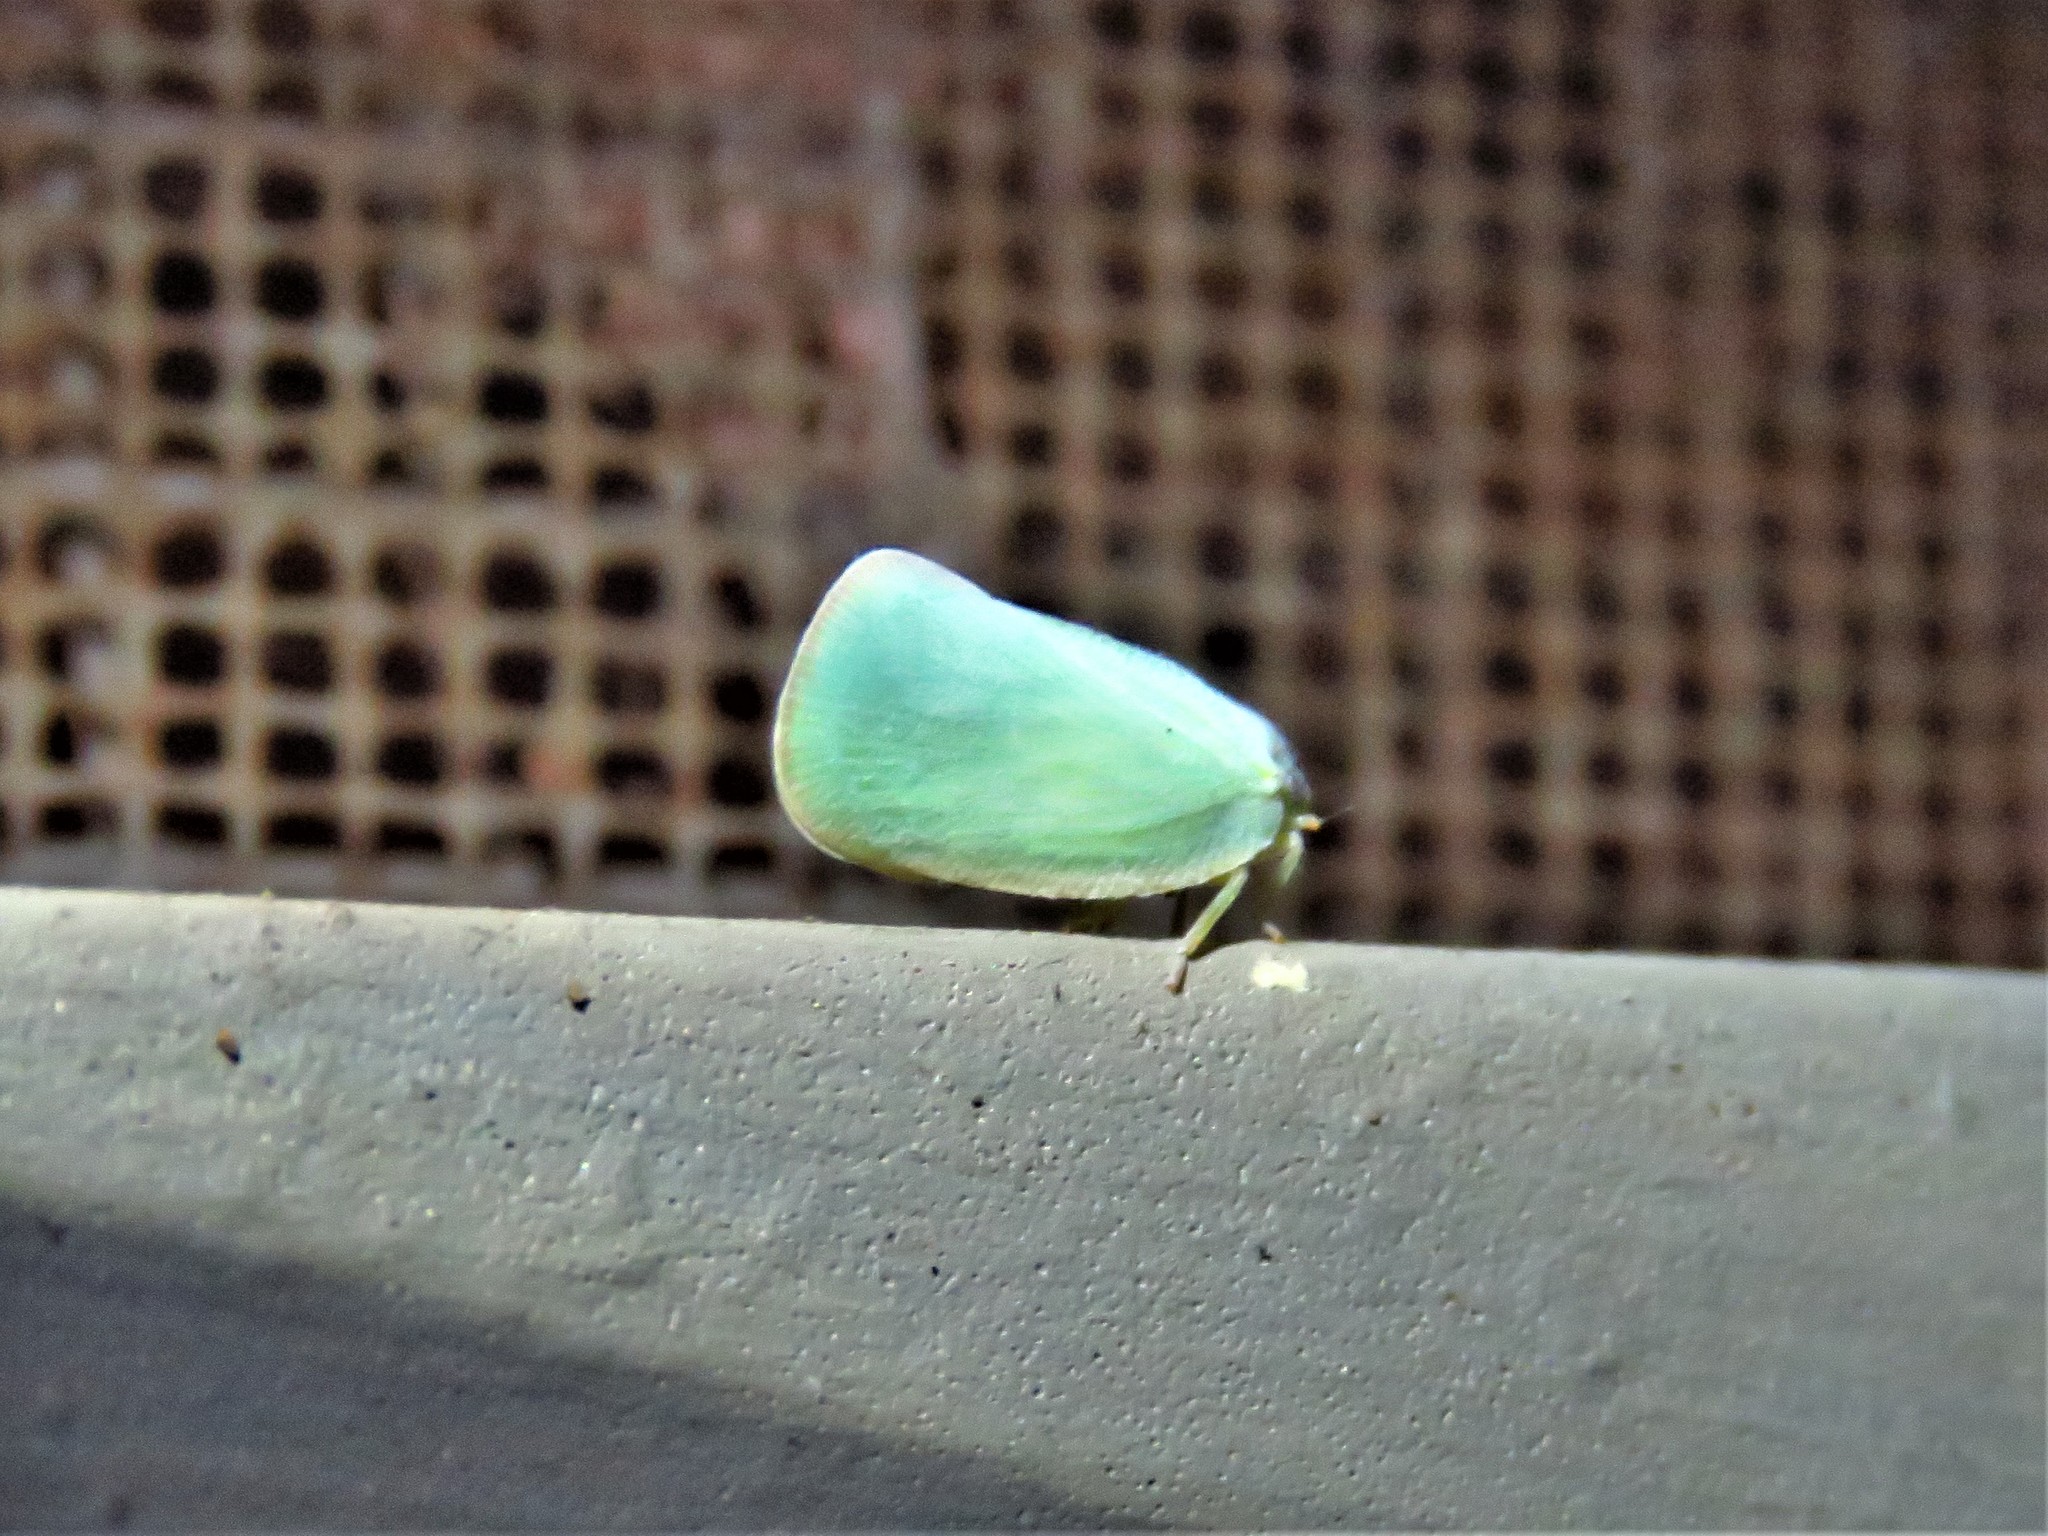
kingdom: Animalia
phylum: Arthropoda
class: Insecta
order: Hemiptera
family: Flatidae
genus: Ormenoides
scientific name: Ormenoides venusta
